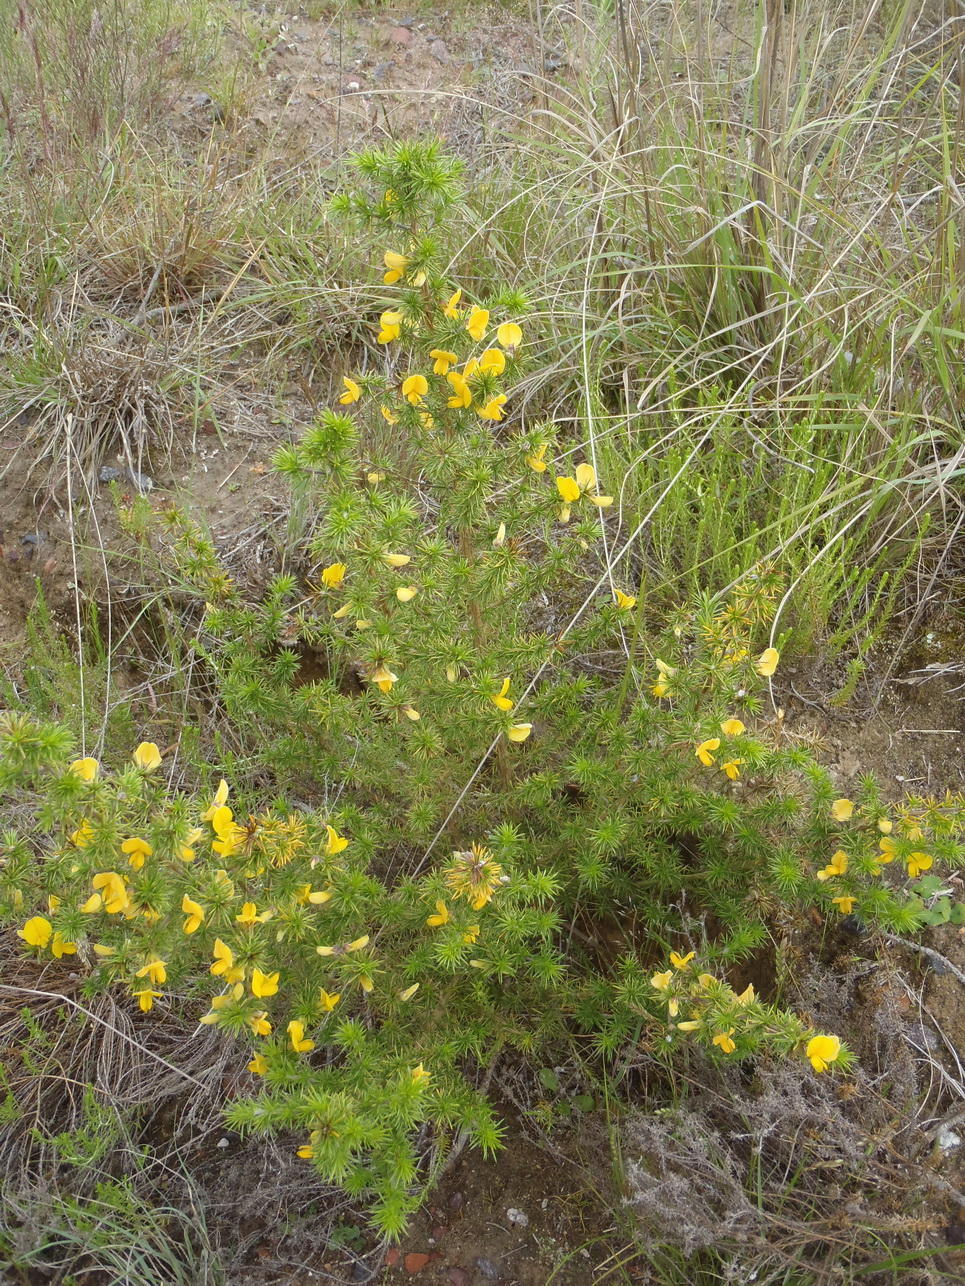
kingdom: Plantae
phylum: Tracheophyta
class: Magnoliopsida
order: Fabales
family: Fabaceae
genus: Aspalathus
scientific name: Aspalathus hirta
